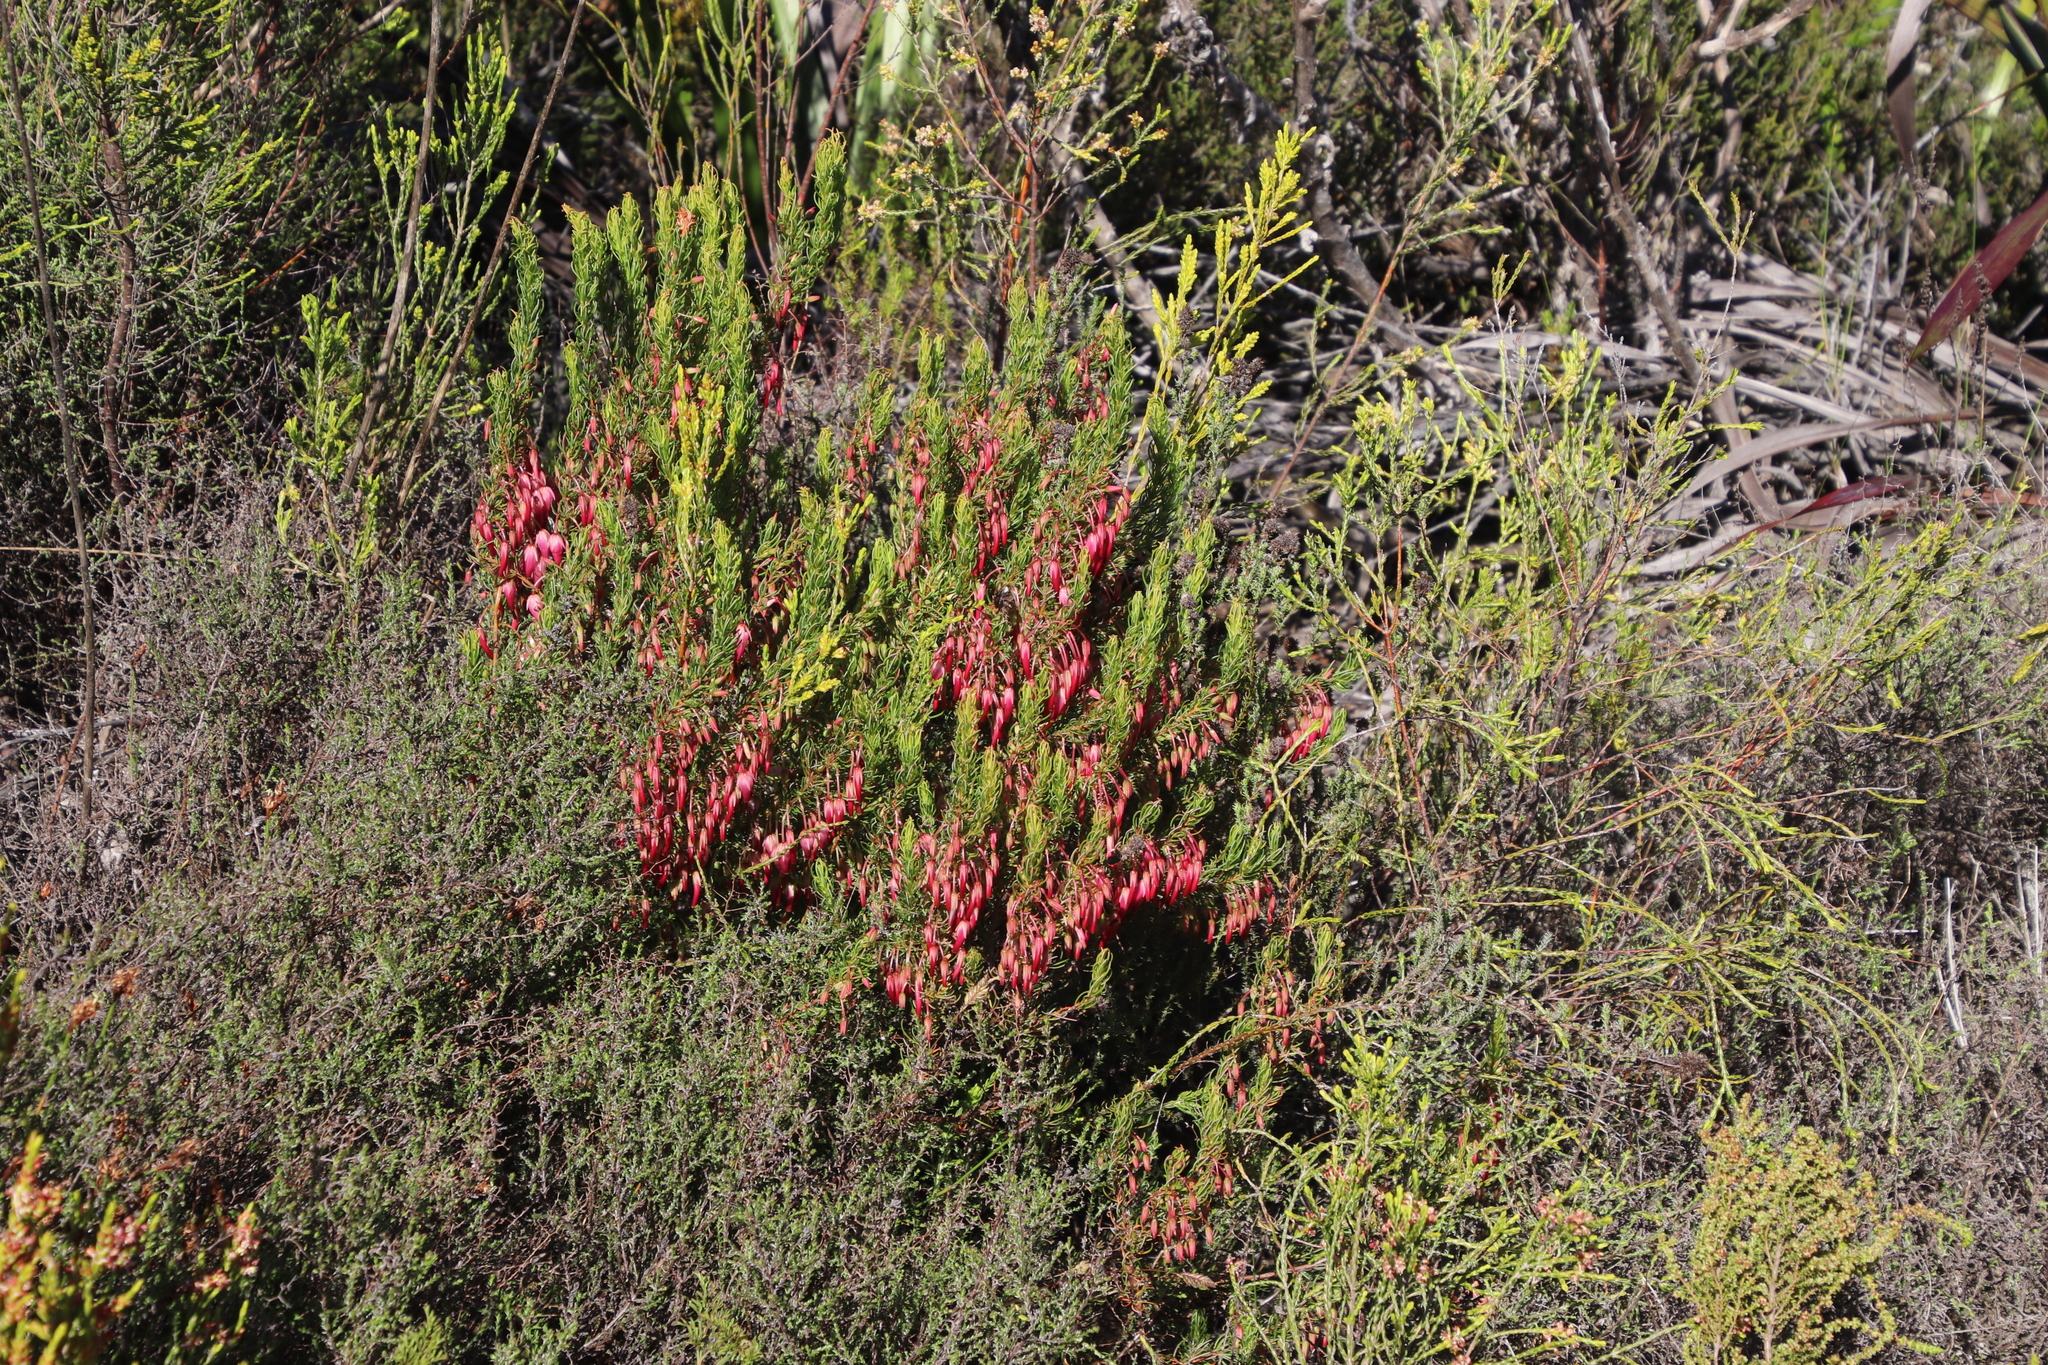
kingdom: Plantae
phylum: Tracheophyta
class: Magnoliopsida
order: Ericales
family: Ericaceae
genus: Erica
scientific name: Erica plukenetii
